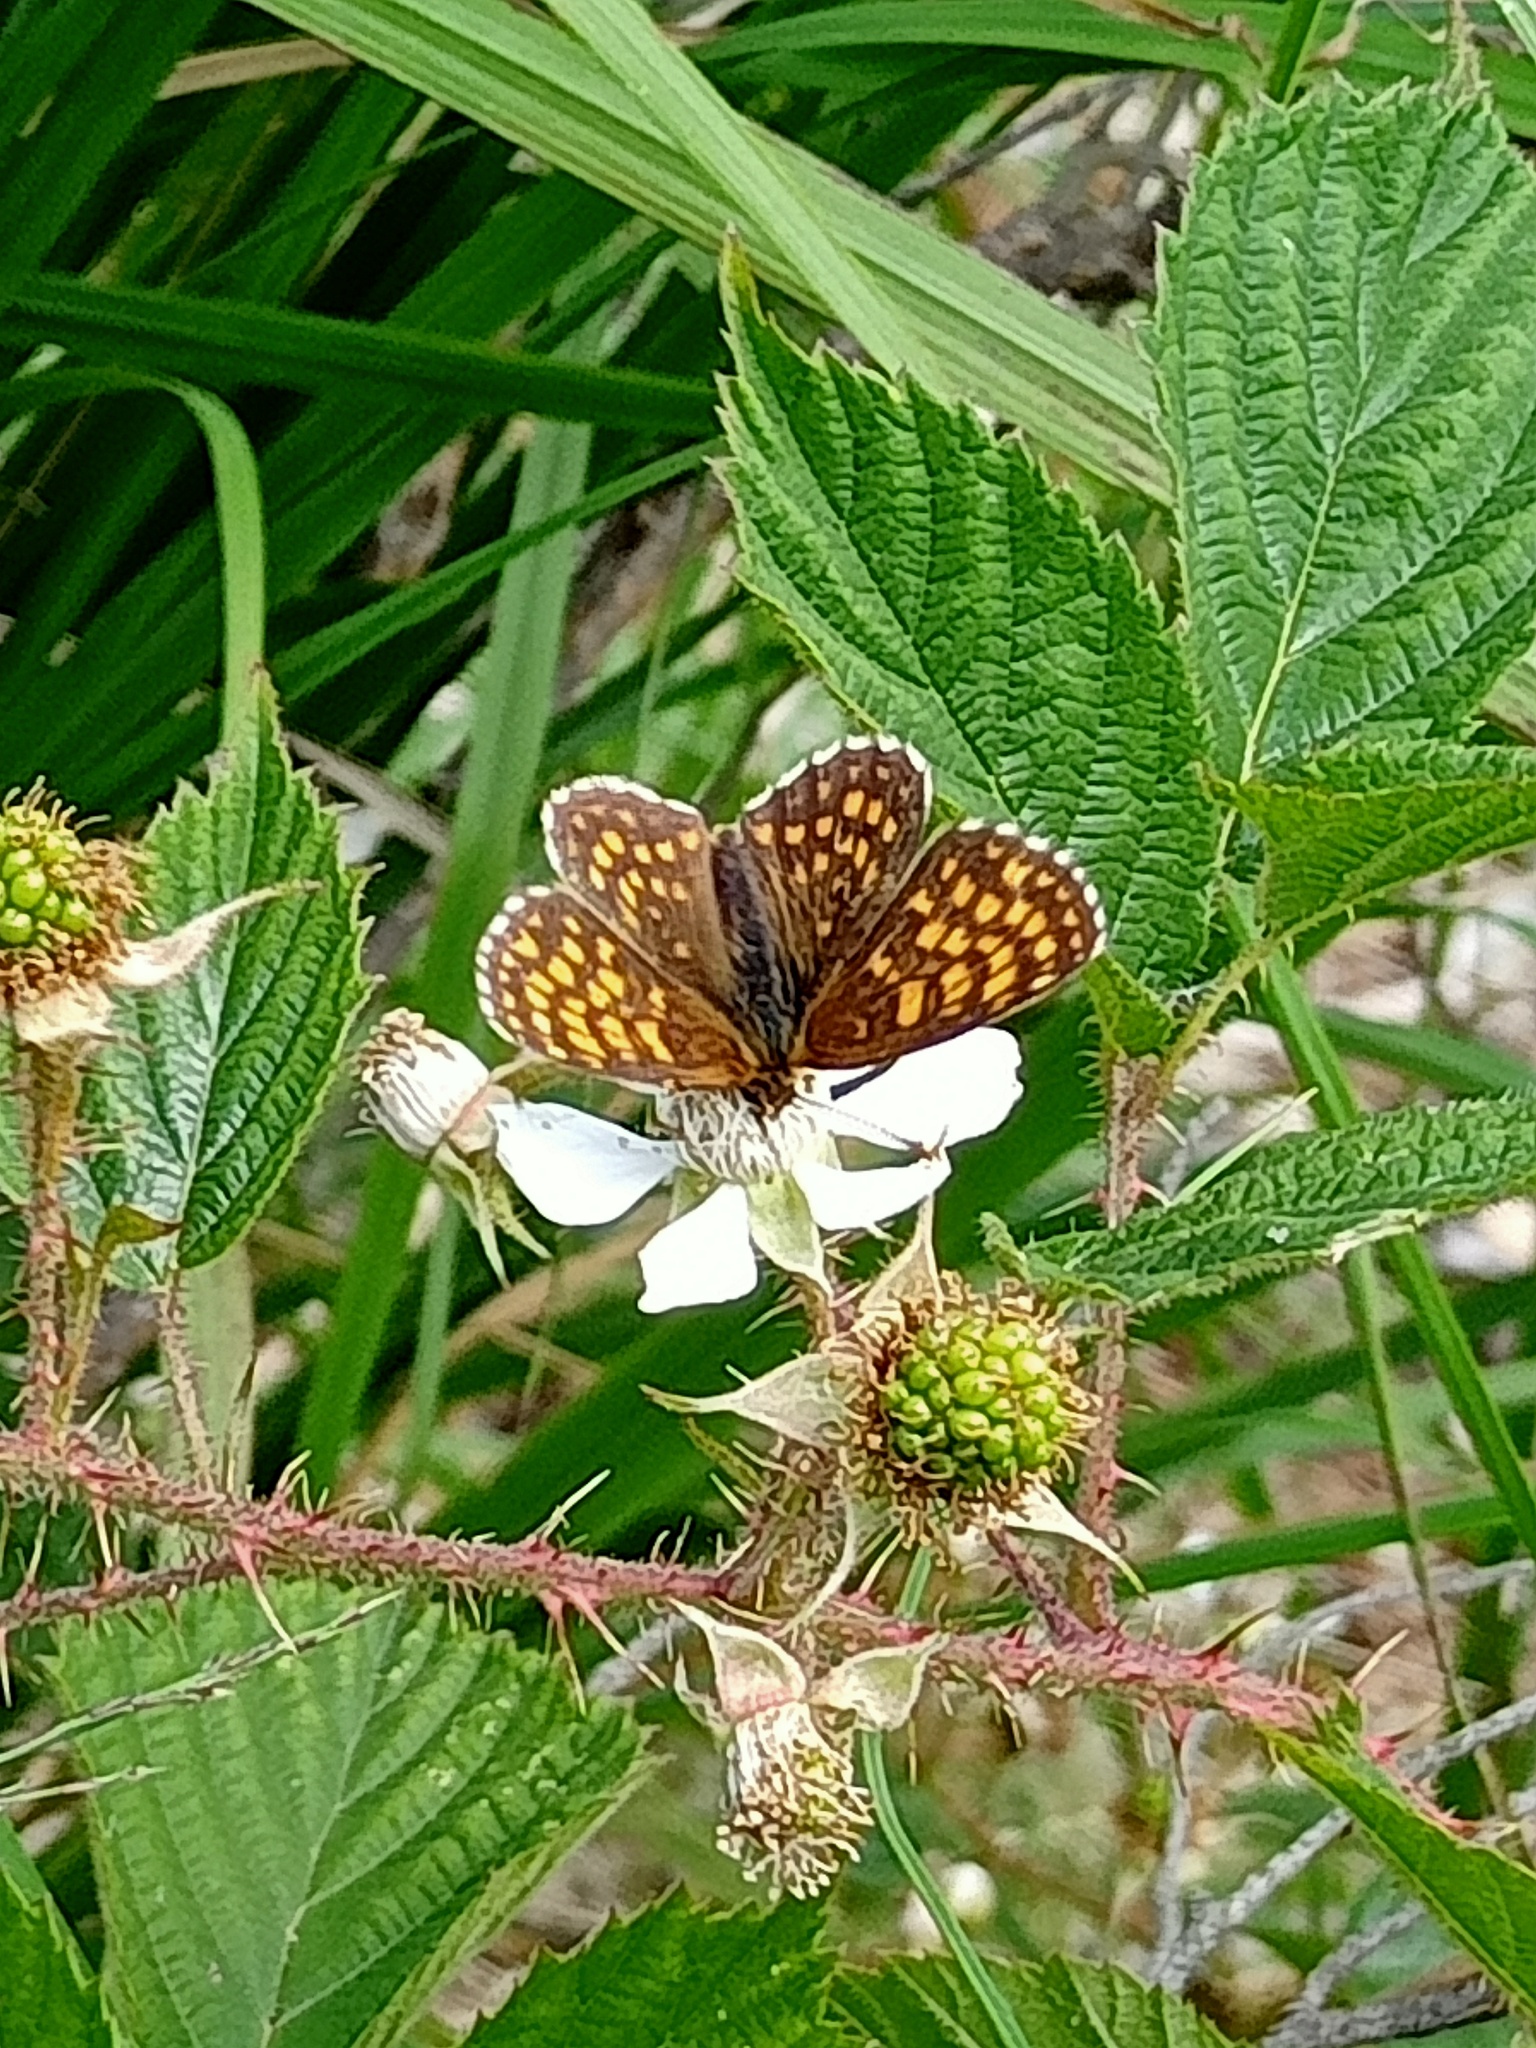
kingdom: Animalia
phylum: Arthropoda
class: Insecta
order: Lepidoptera
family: Nymphalidae
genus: Melitaea
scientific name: Melitaea athalia
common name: Heath fritillary
